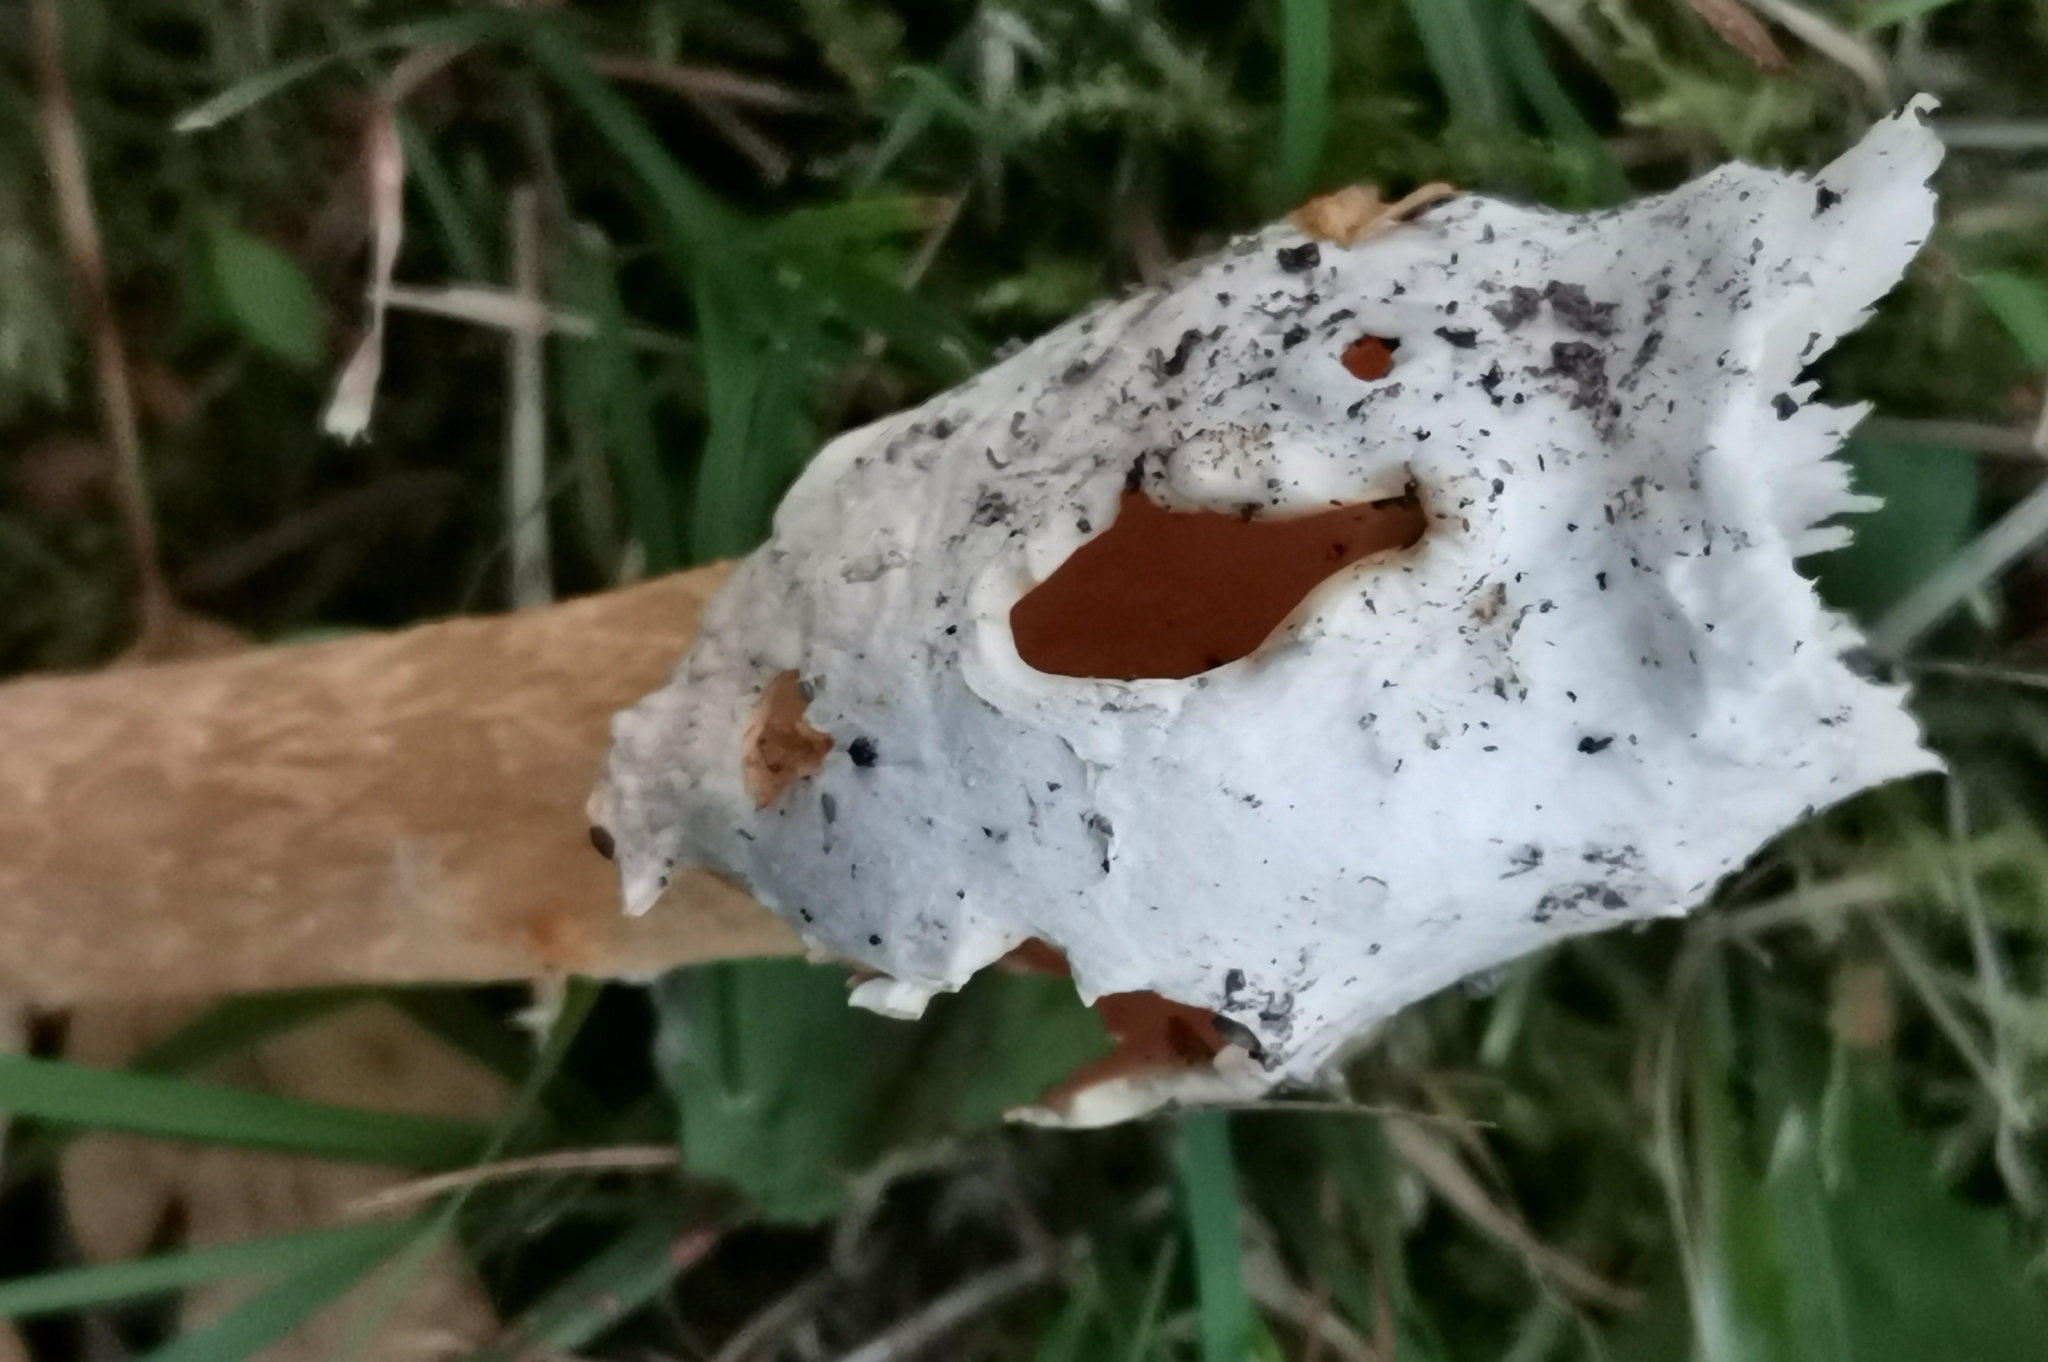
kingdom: Fungi
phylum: Basidiomycota
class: Agaricomycetes
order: Agaricales
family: Amanitaceae
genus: Amanita
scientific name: Amanita crocea
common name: Orange grisette
